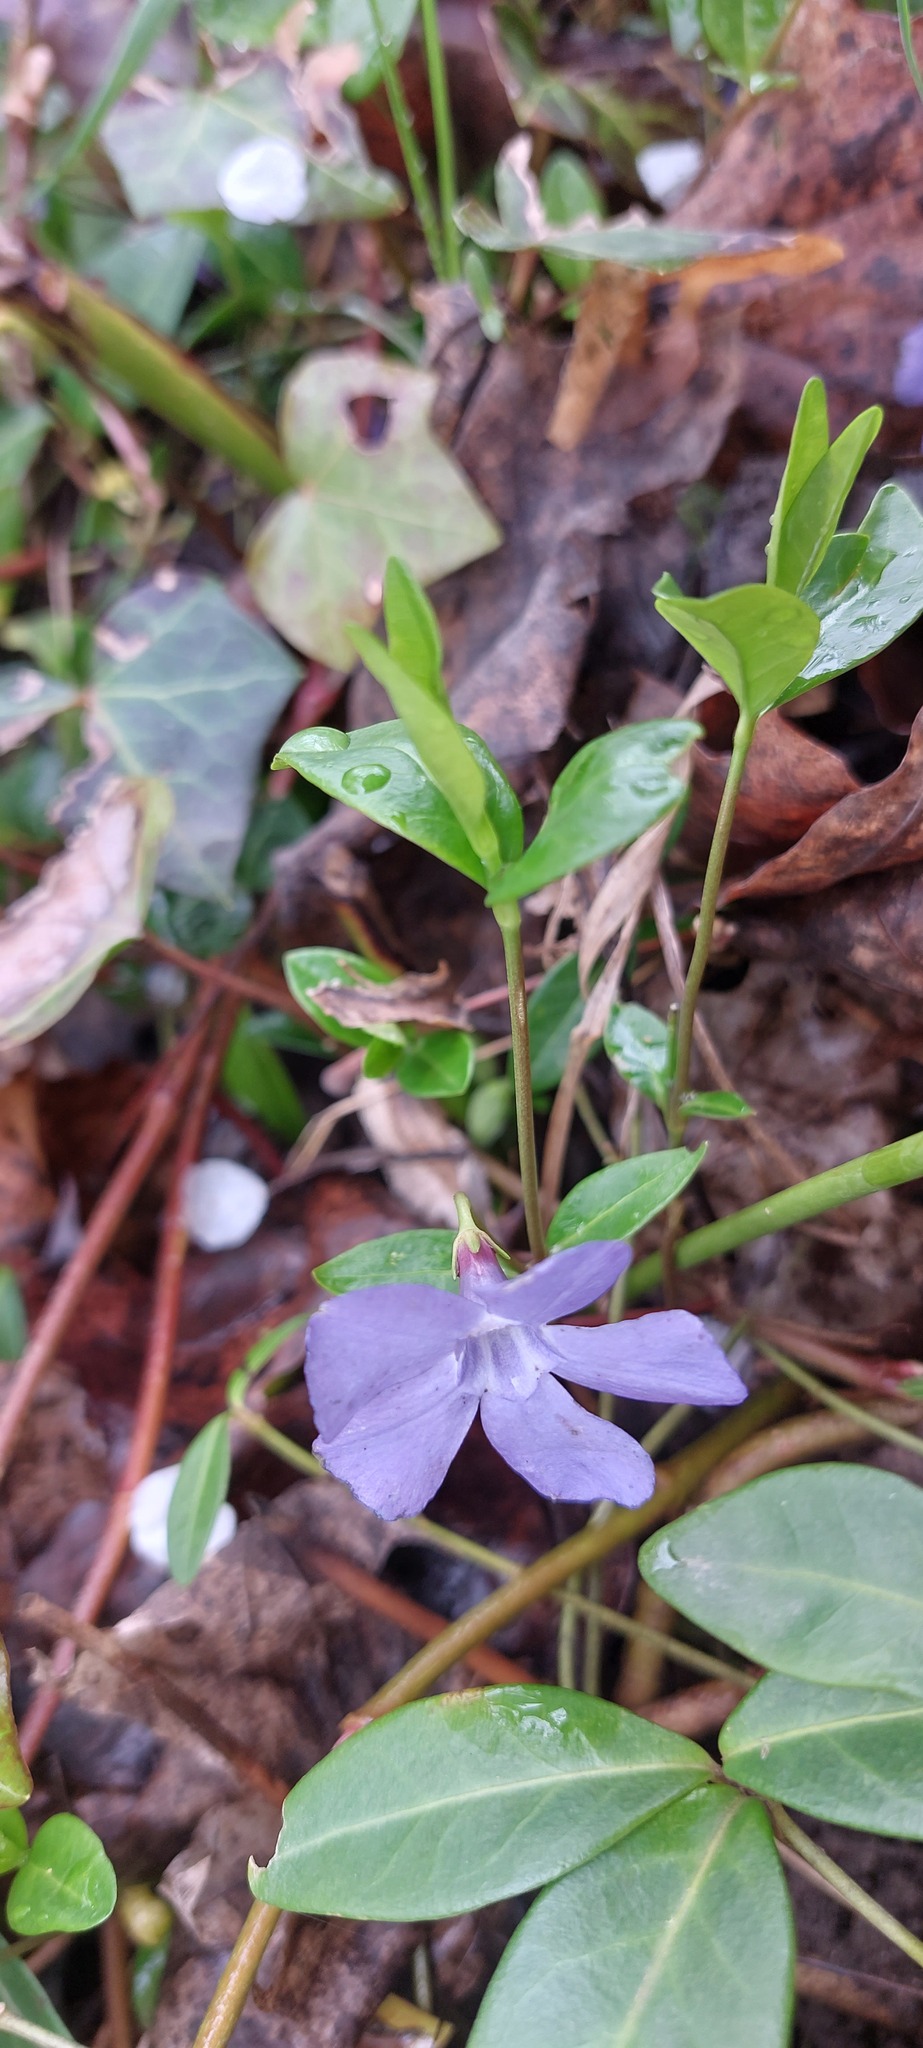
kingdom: Plantae
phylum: Tracheophyta
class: Magnoliopsida
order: Gentianales
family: Apocynaceae
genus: Vinca
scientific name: Vinca minor
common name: Lesser periwinkle
